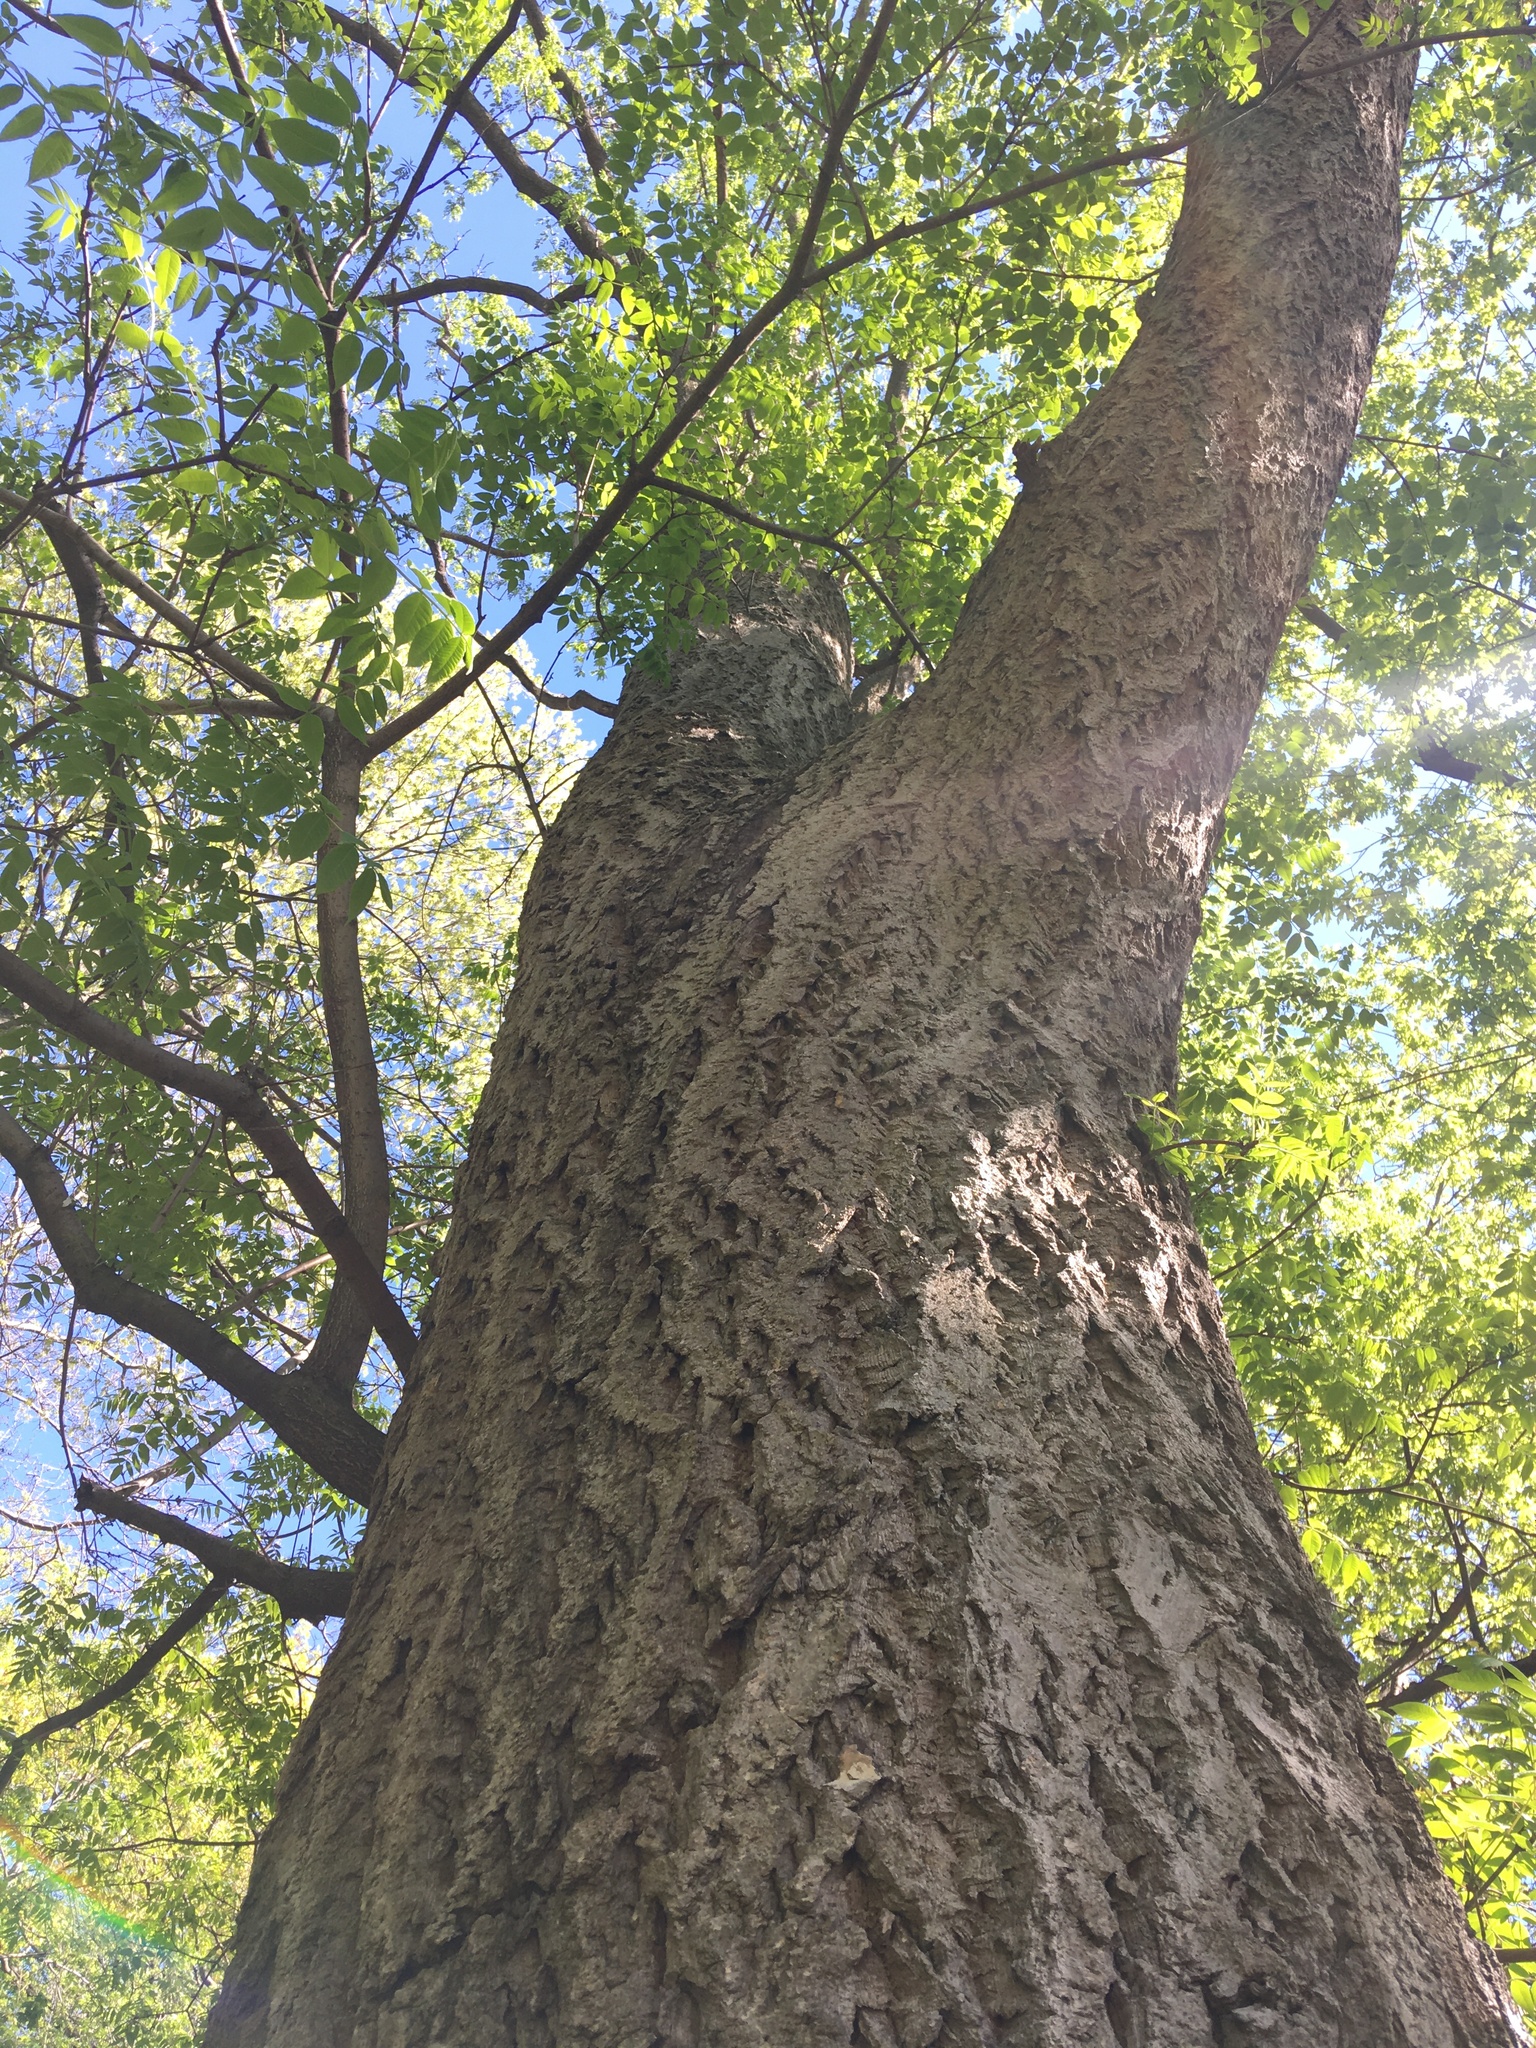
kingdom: Plantae
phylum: Tracheophyta
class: Magnoliopsida
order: Sapindales
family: Rutaceae
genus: Phellodendron
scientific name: Phellodendron amurense
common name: Amur corktree
